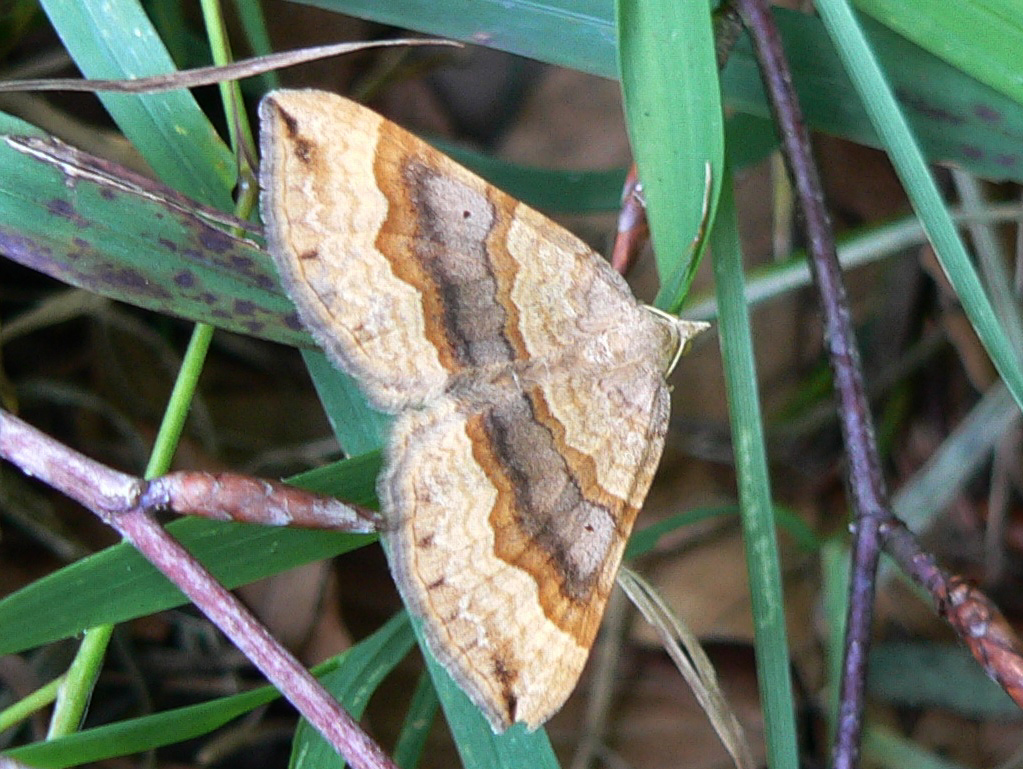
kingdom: Animalia
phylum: Arthropoda
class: Insecta
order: Lepidoptera
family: Geometridae
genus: Scotopteryx
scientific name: Scotopteryx chenopodiata
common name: Shaded broad-bar
